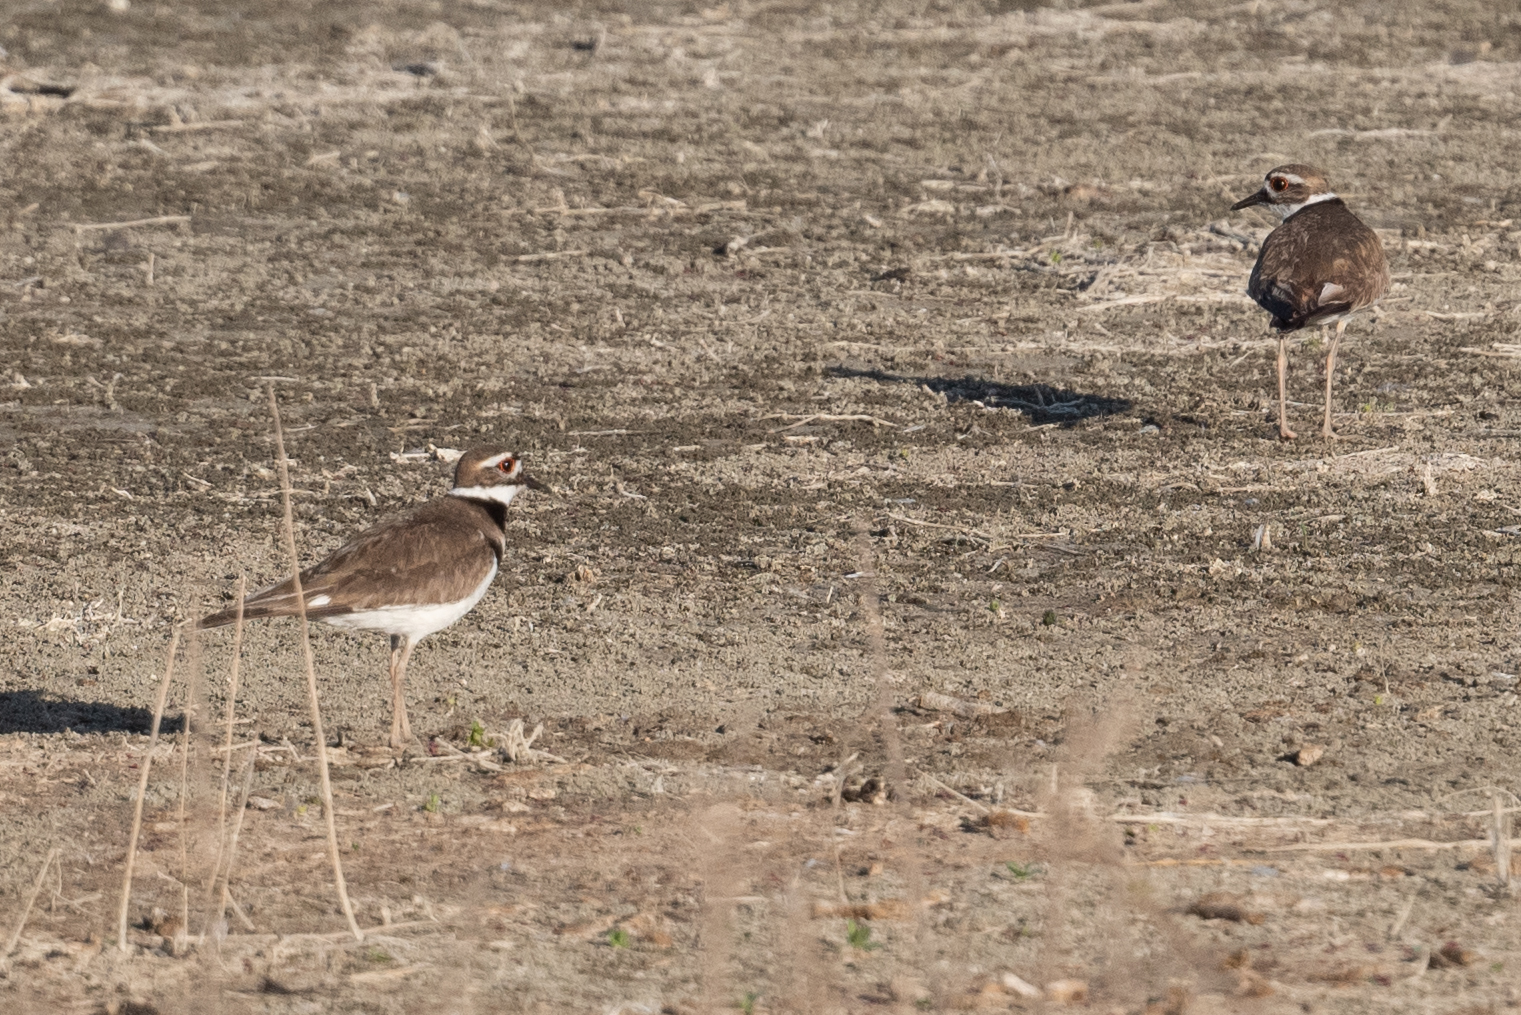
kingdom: Animalia
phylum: Chordata
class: Aves
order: Charadriiformes
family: Charadriidae
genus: Charadrius
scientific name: Charadrius vociferus
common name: Killdeer
